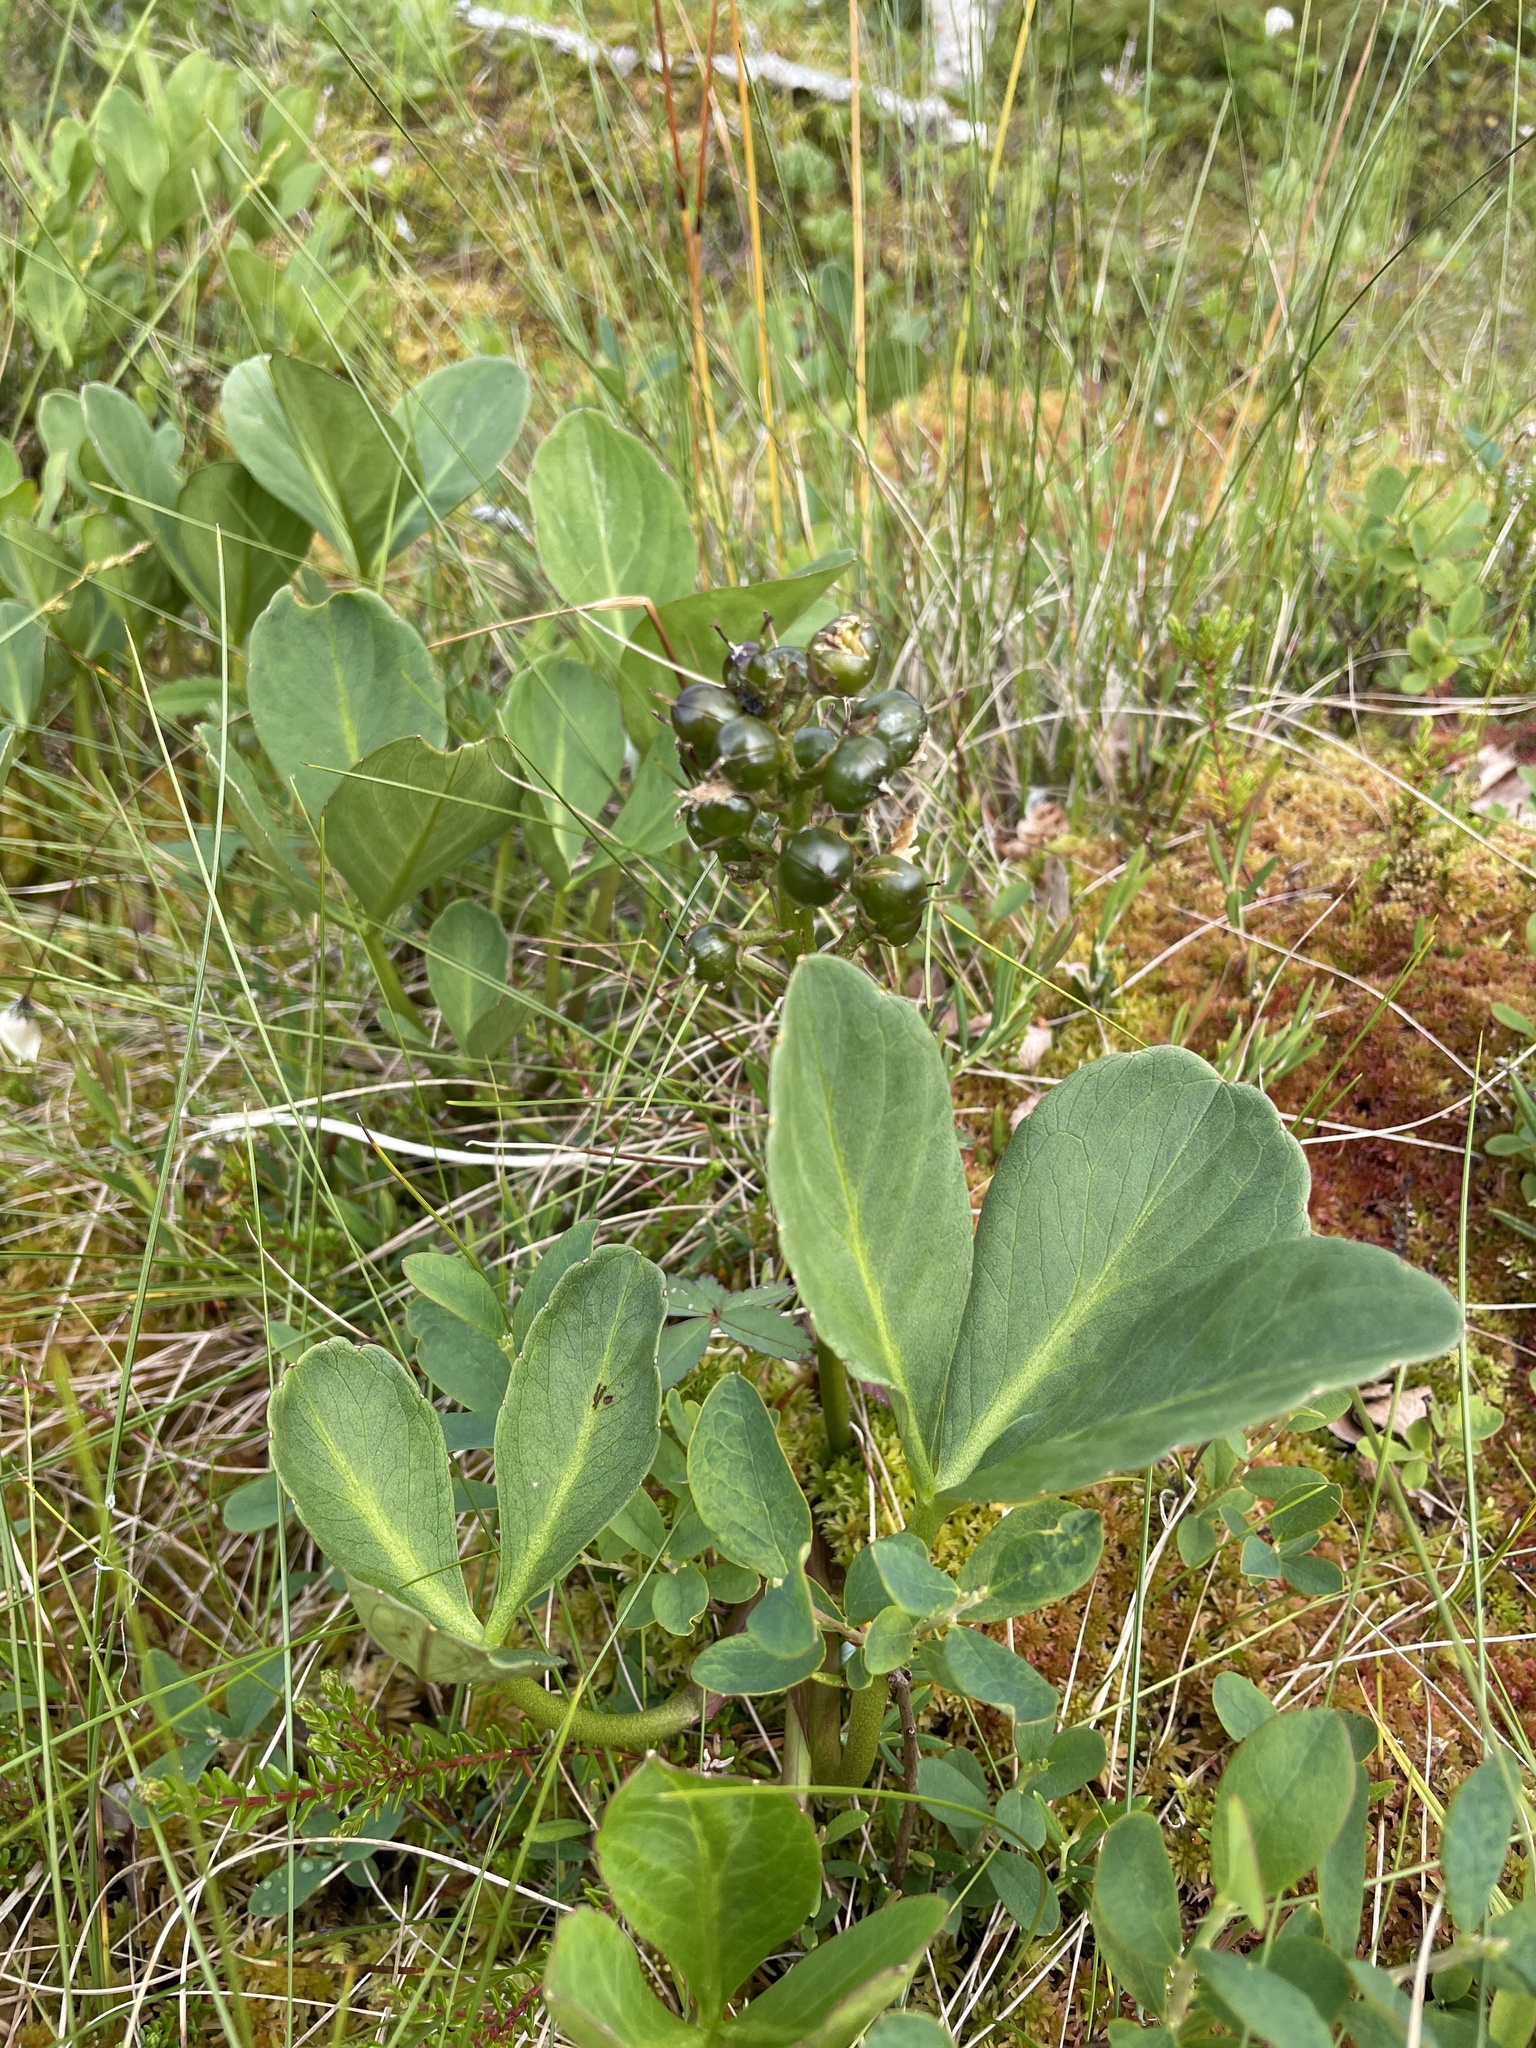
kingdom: Plantae
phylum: Tracheophyta
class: Magnoliopsida
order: Asterales
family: Menyanthaceae
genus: Menyanthes
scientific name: Menyanthes trifoliata
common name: Bogbean
